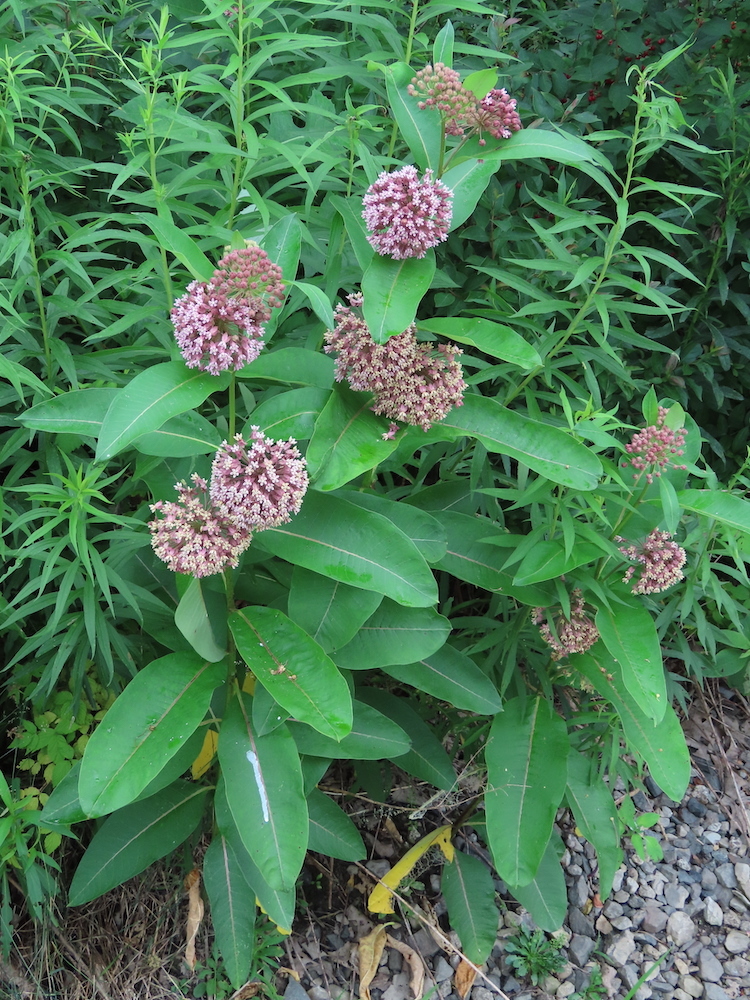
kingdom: Plantae
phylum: Tracheophyta
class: Magnoliopsida
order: Gentianales
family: Apocynaceae
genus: Asclepias
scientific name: Asclepias syriaca
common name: Common milkweed
